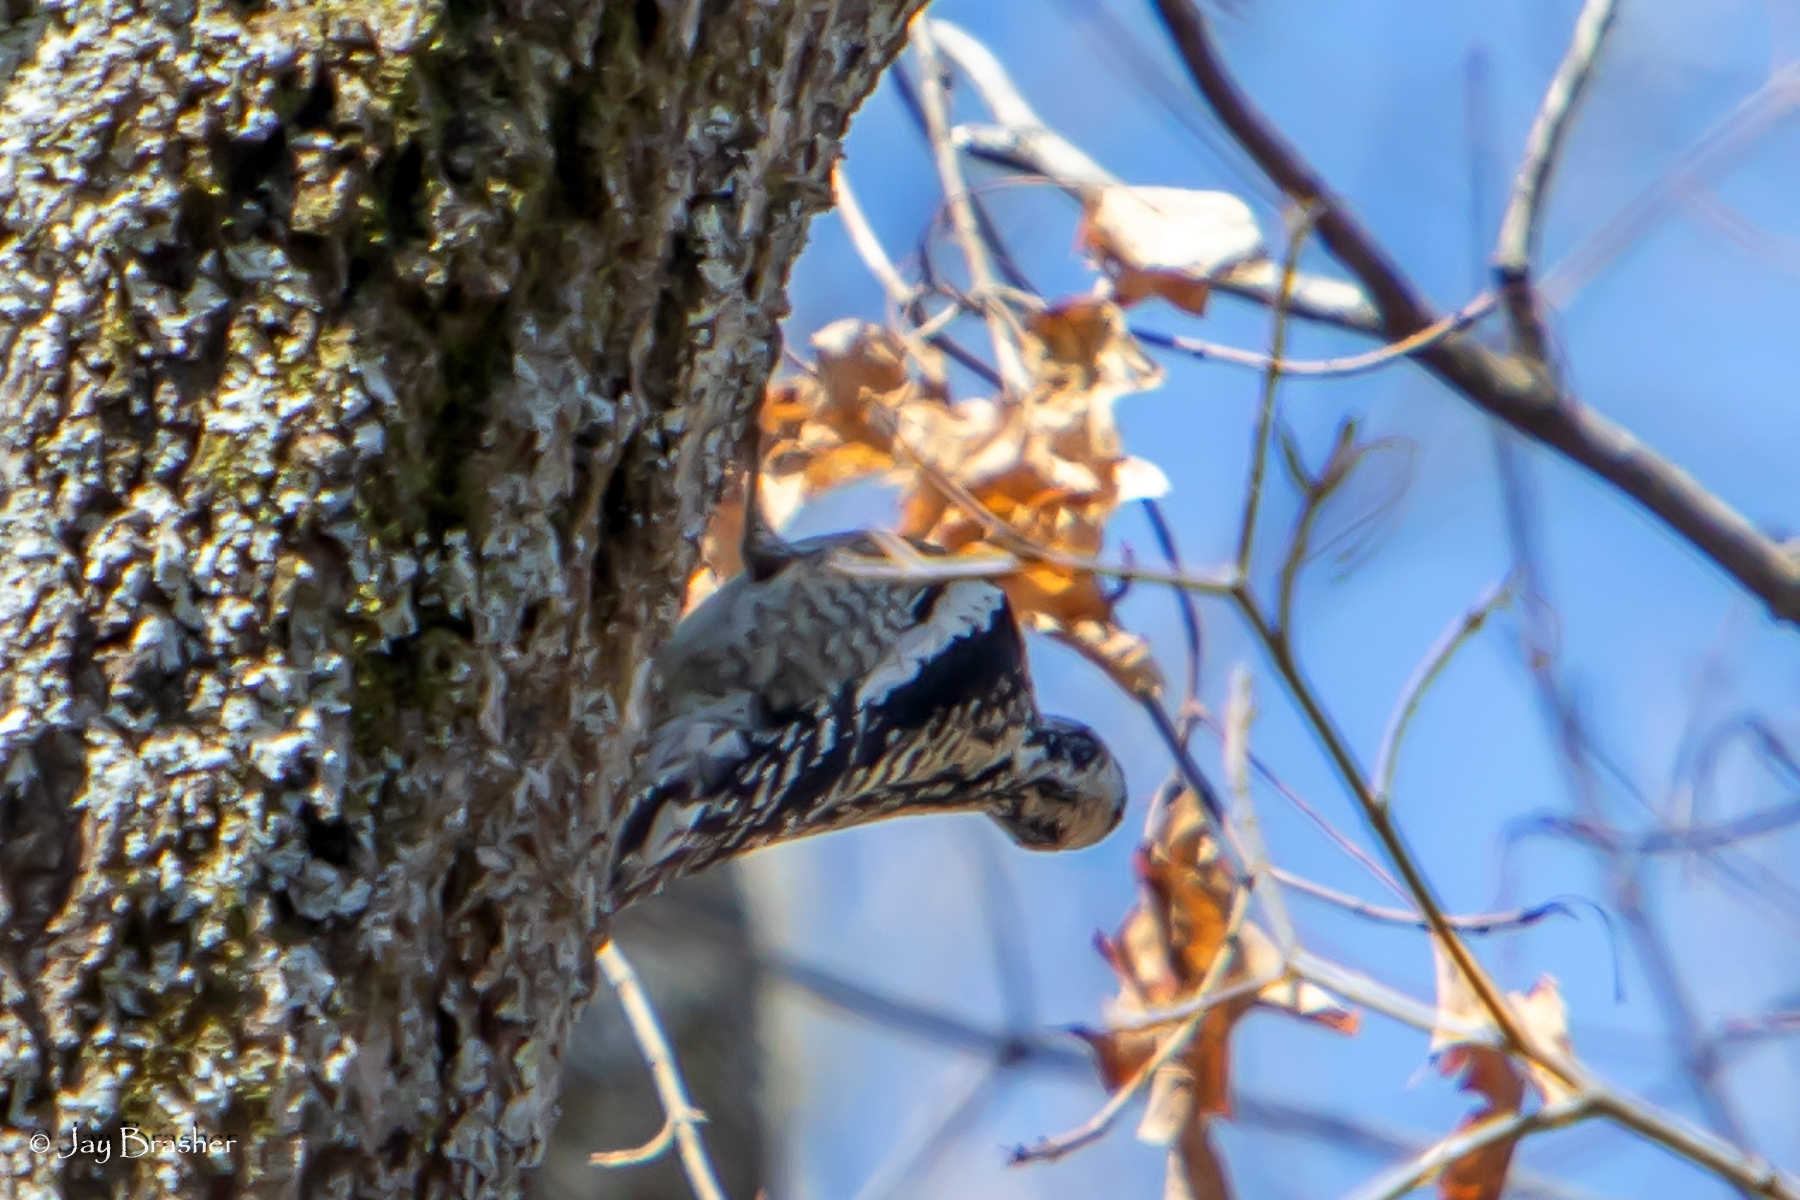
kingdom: Animalia
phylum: Chordata
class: Aves
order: Piciformes
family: Picidae
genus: Sphyrapicus
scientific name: Sphyrapicus varius
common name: Yellow-bellied sapsucker
